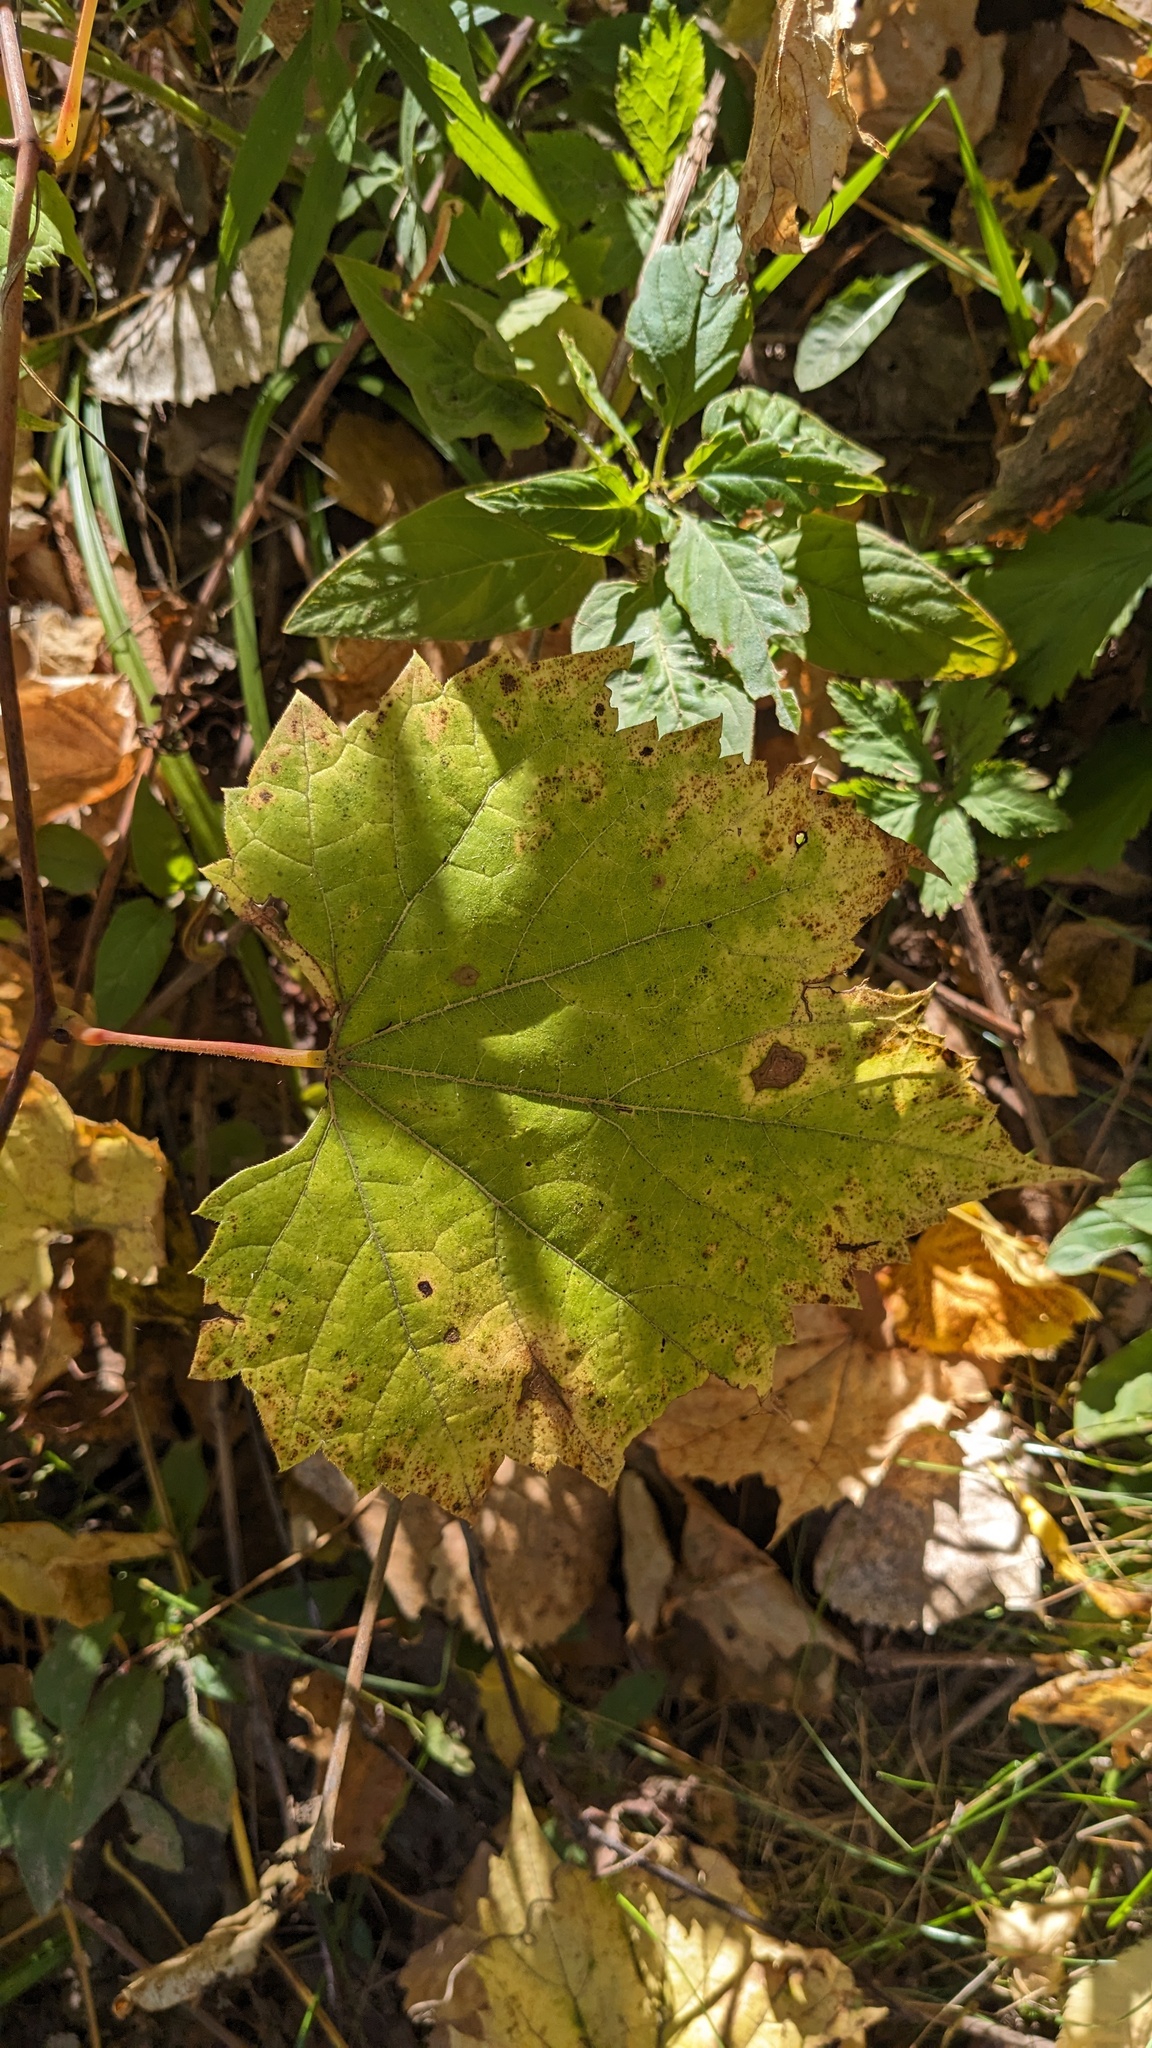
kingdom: Plantae
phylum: Tracheophyta
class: Magnoliopsida
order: Vitales
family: Vitaceae
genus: Vitis
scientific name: Vitis riparia
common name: Frost grape
